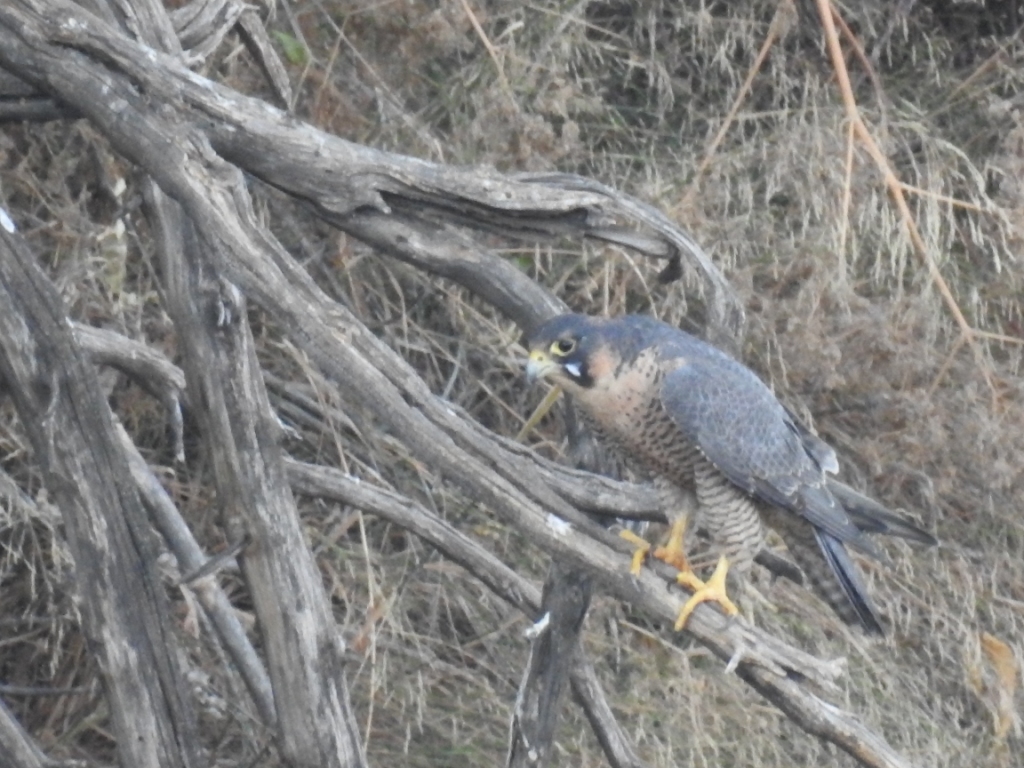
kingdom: Animalia
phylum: Chordata
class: Aves
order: Falconiformes
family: Falconidae
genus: Falco
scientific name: Falco peregrinus
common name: Peregrine falcon
